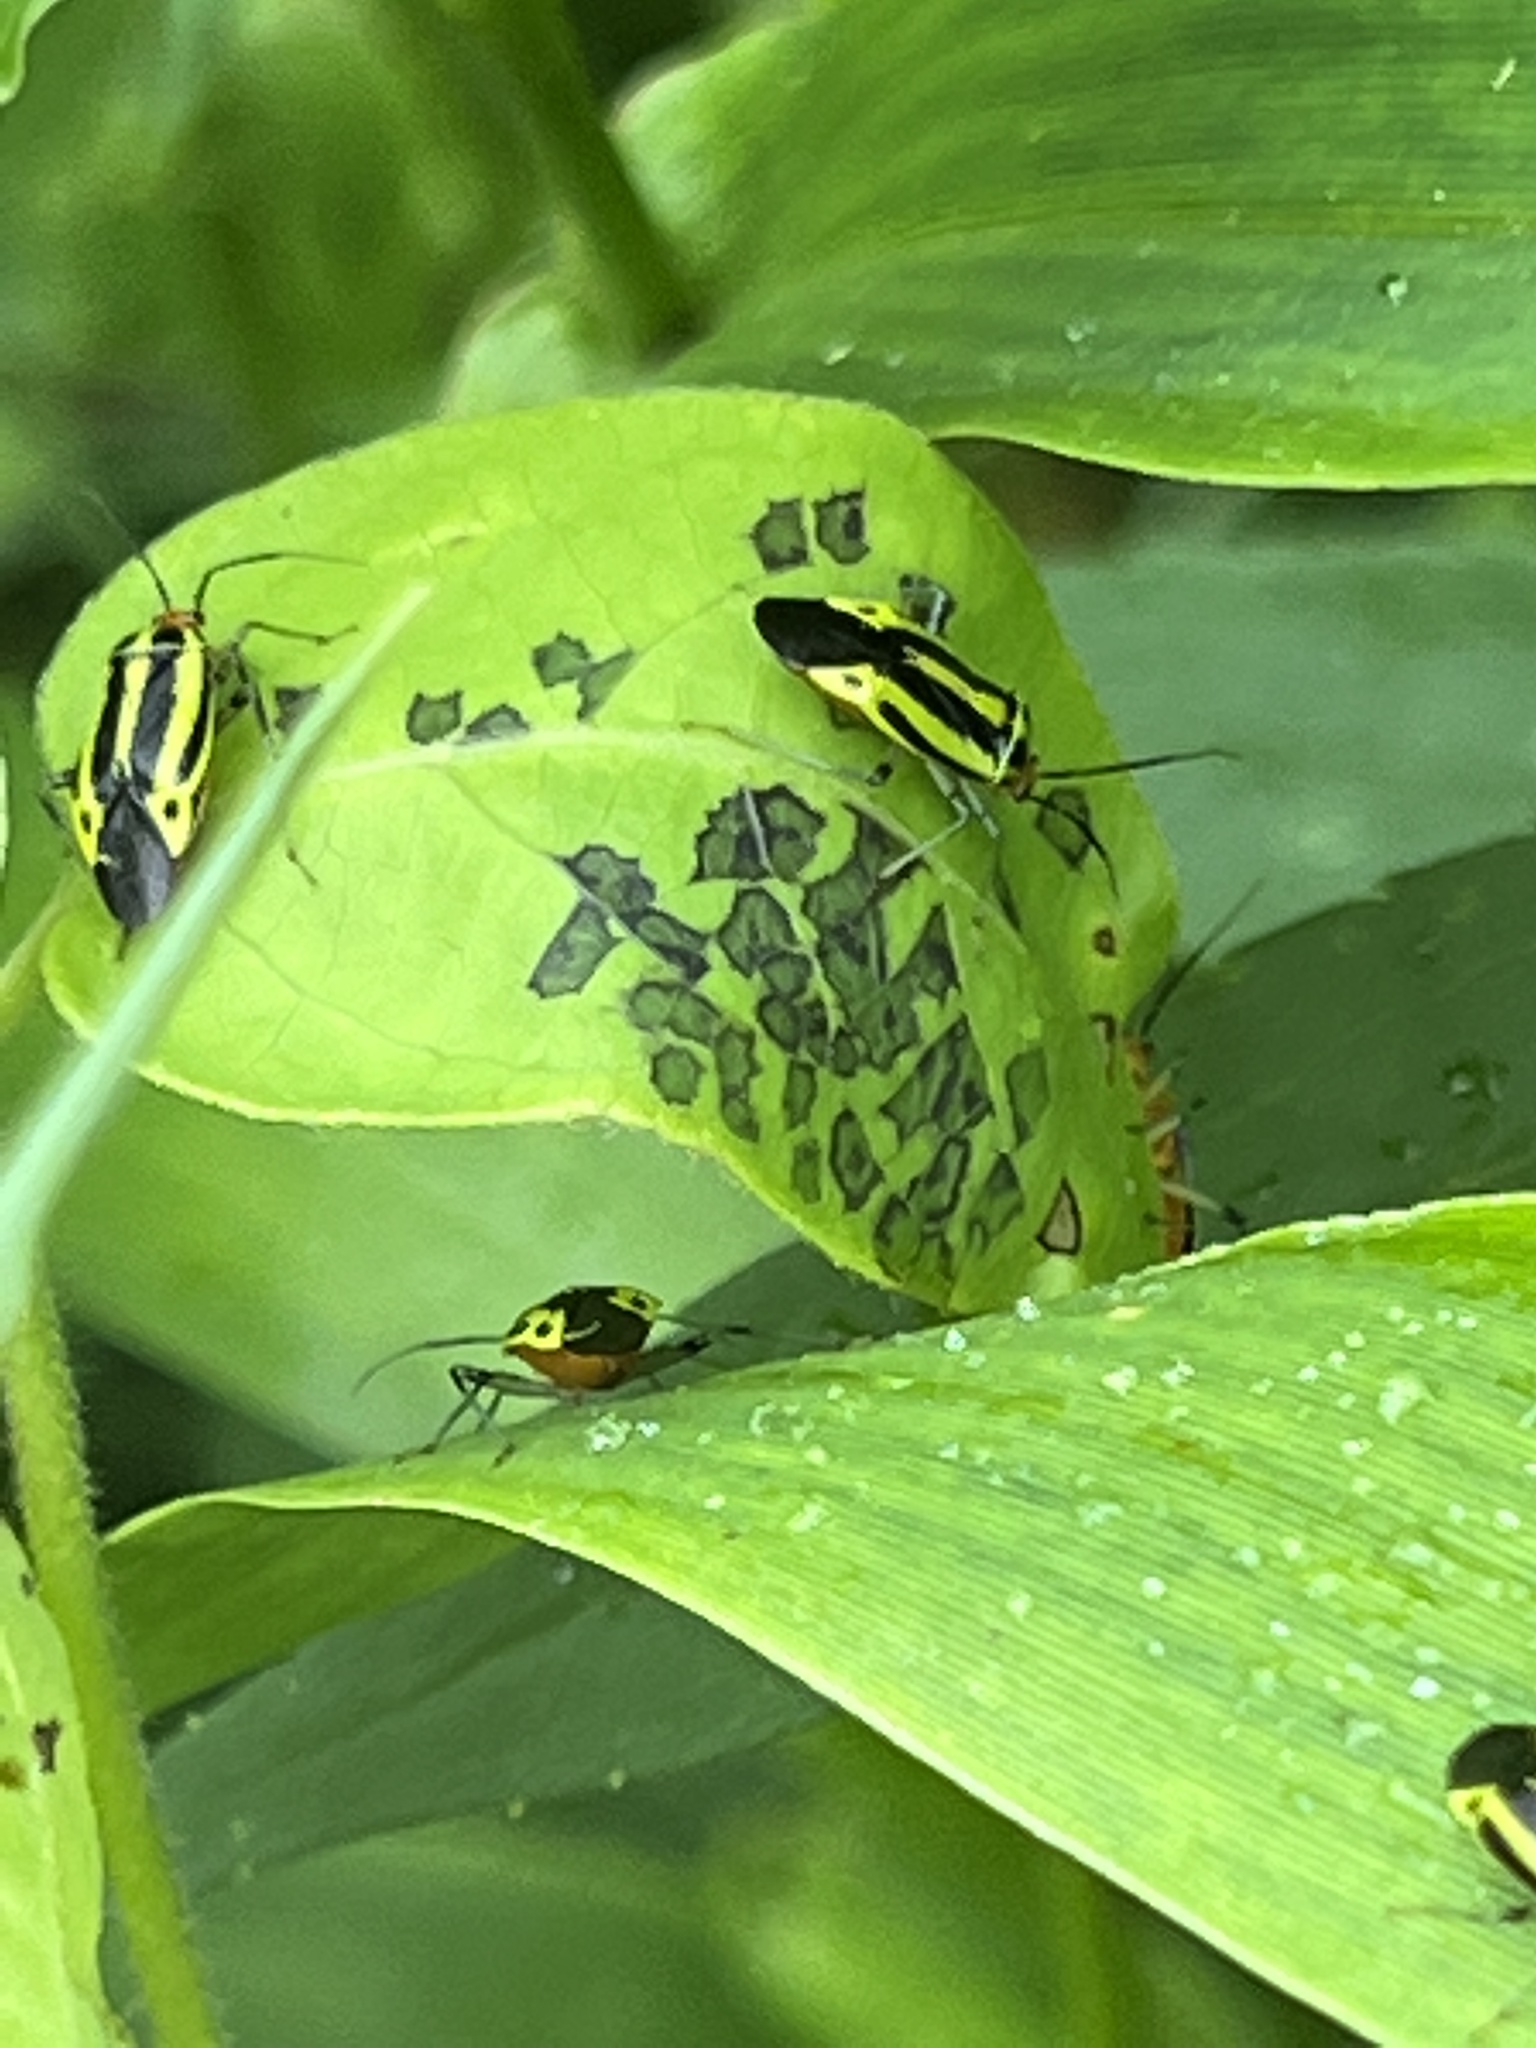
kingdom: Animalia
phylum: Arthropoda
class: Insecta
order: Hemiptera
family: Miridae
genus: Poecilocapsus
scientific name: Poecilocapsus lineatus
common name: Four-lined plant bug
